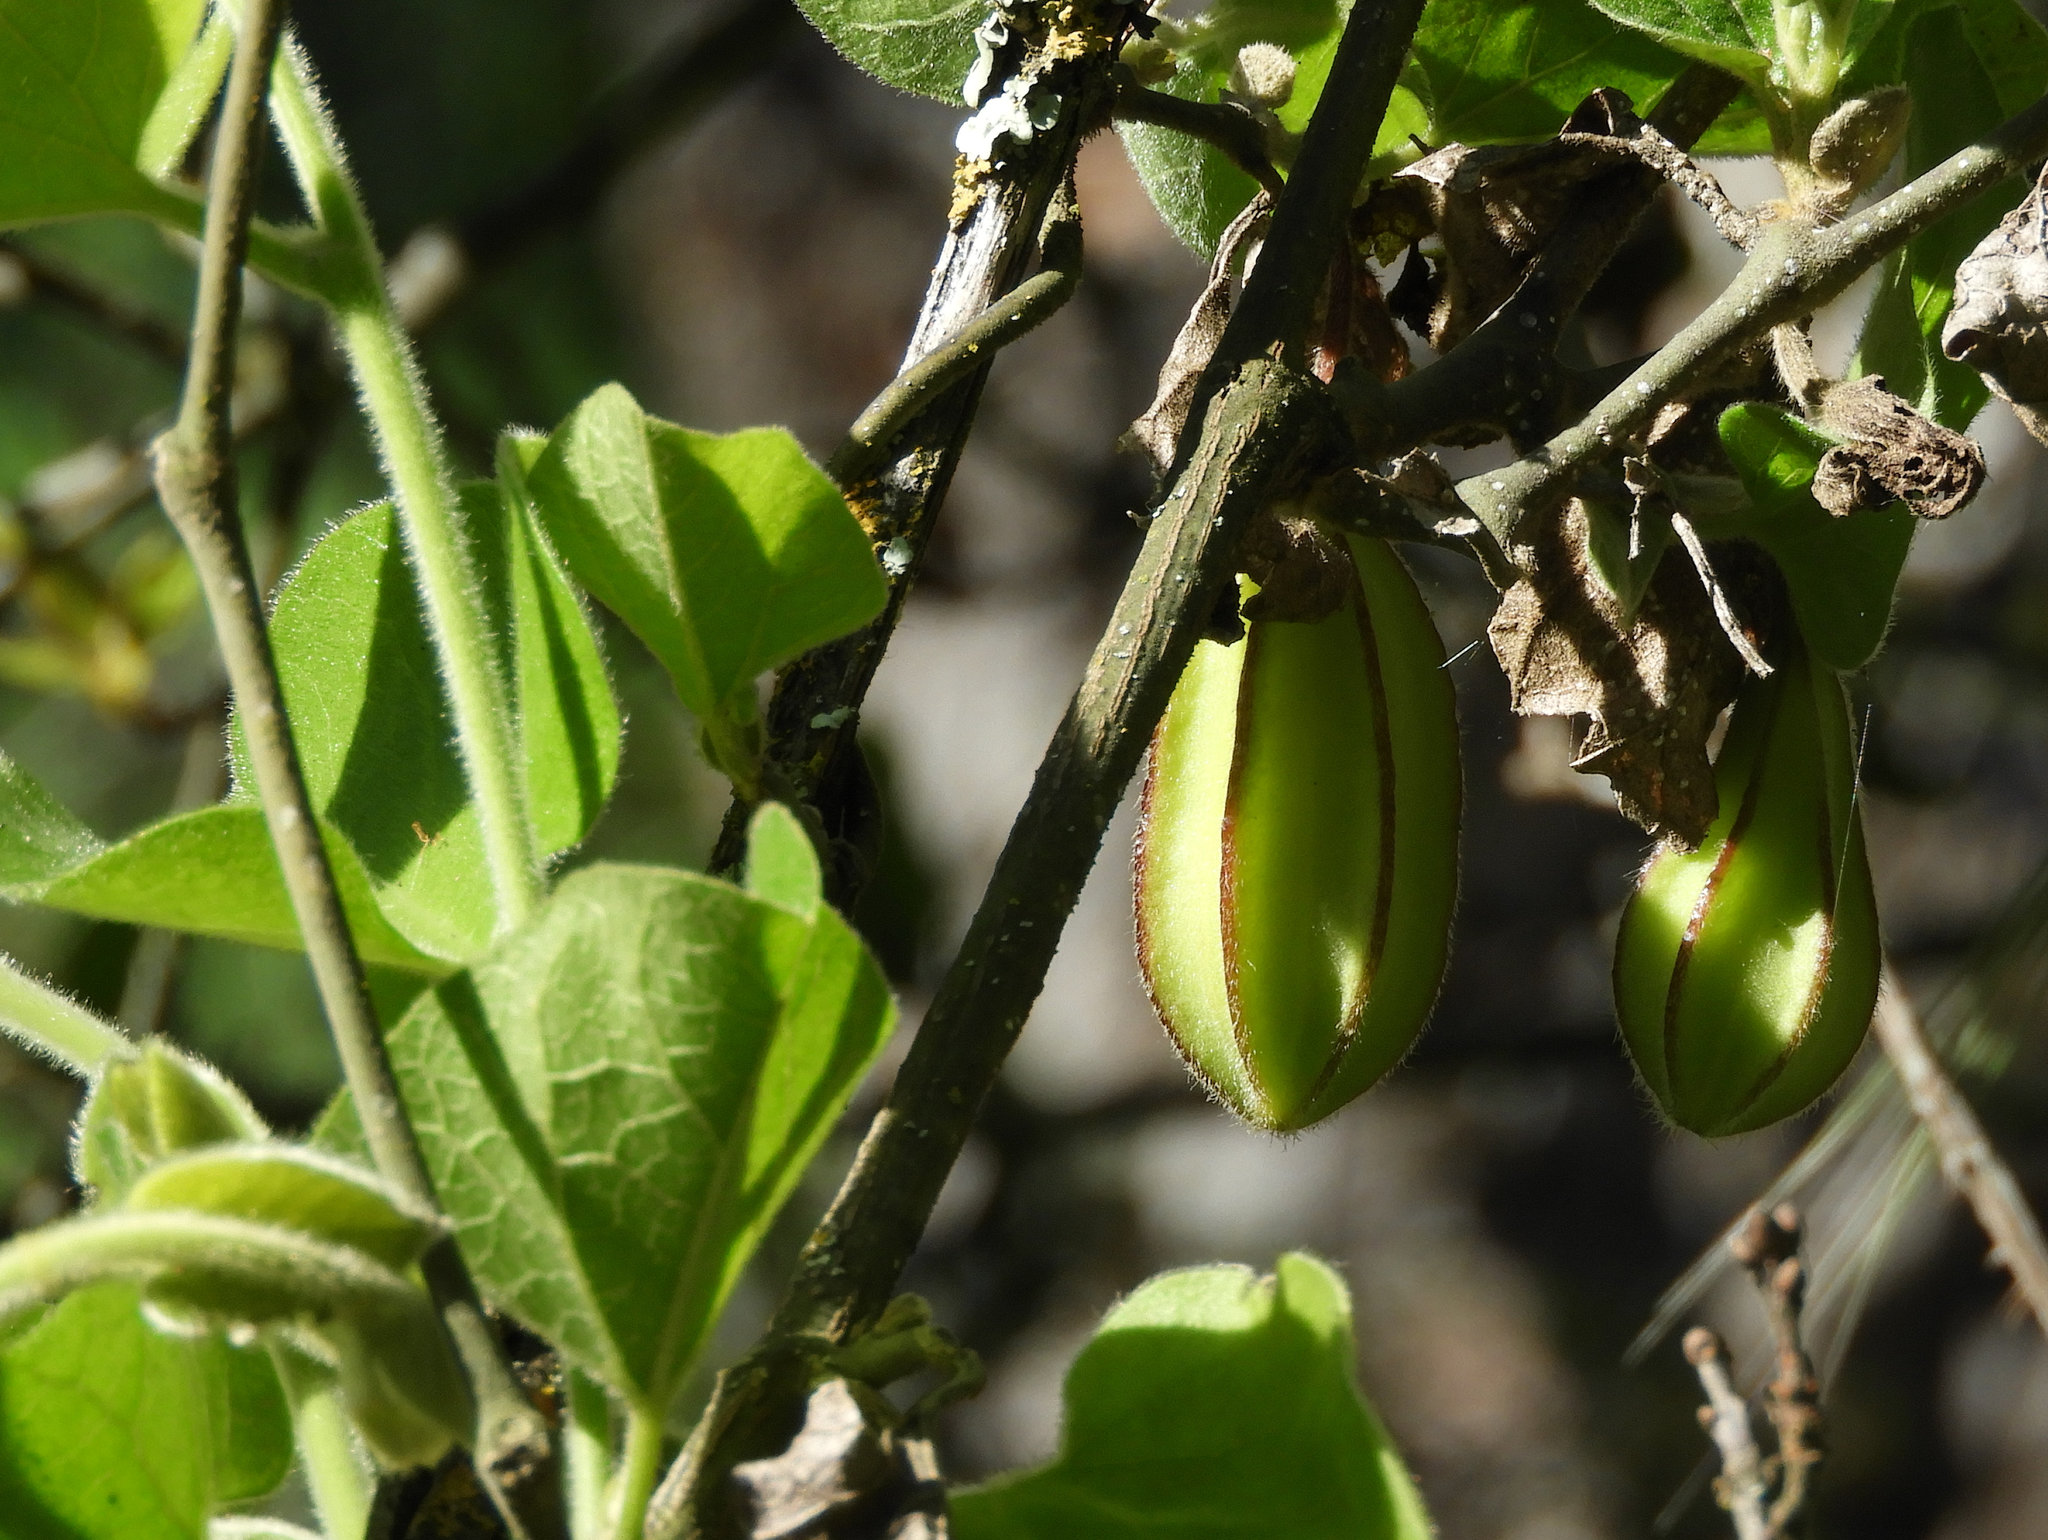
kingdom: Plantae
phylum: Tracheophyta
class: Magnoliopsida
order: Piperales
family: Aristolochiaceae
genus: Isotrema
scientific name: Isotrema californicum
